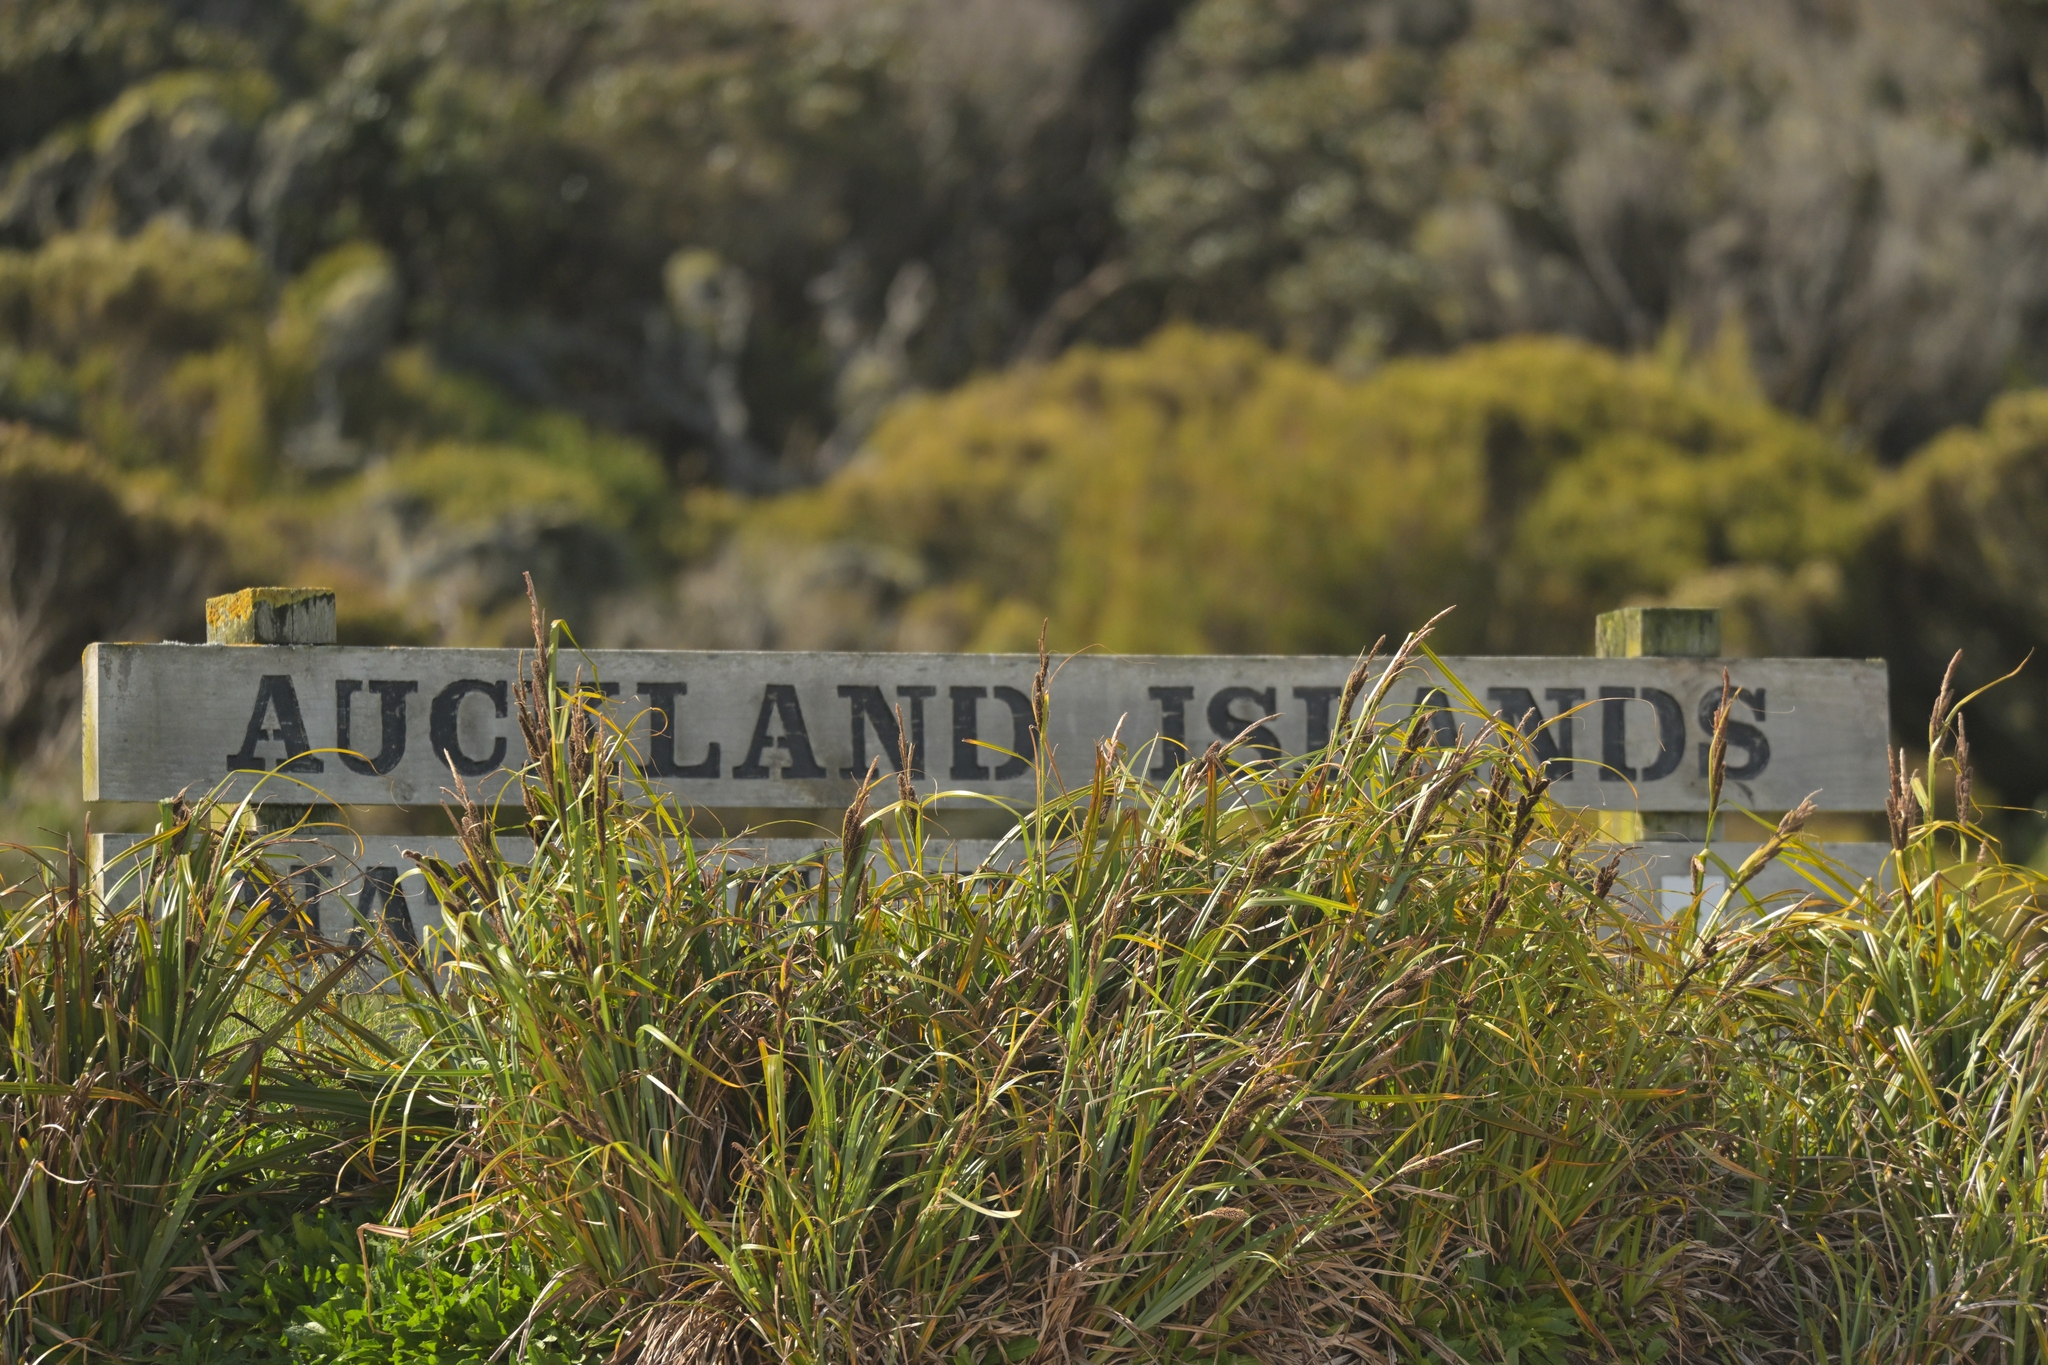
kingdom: Plantae
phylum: Tracheophyta
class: Liliopsida
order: Poales
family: Cyperaceae
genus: Carex
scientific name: Carex trifida
